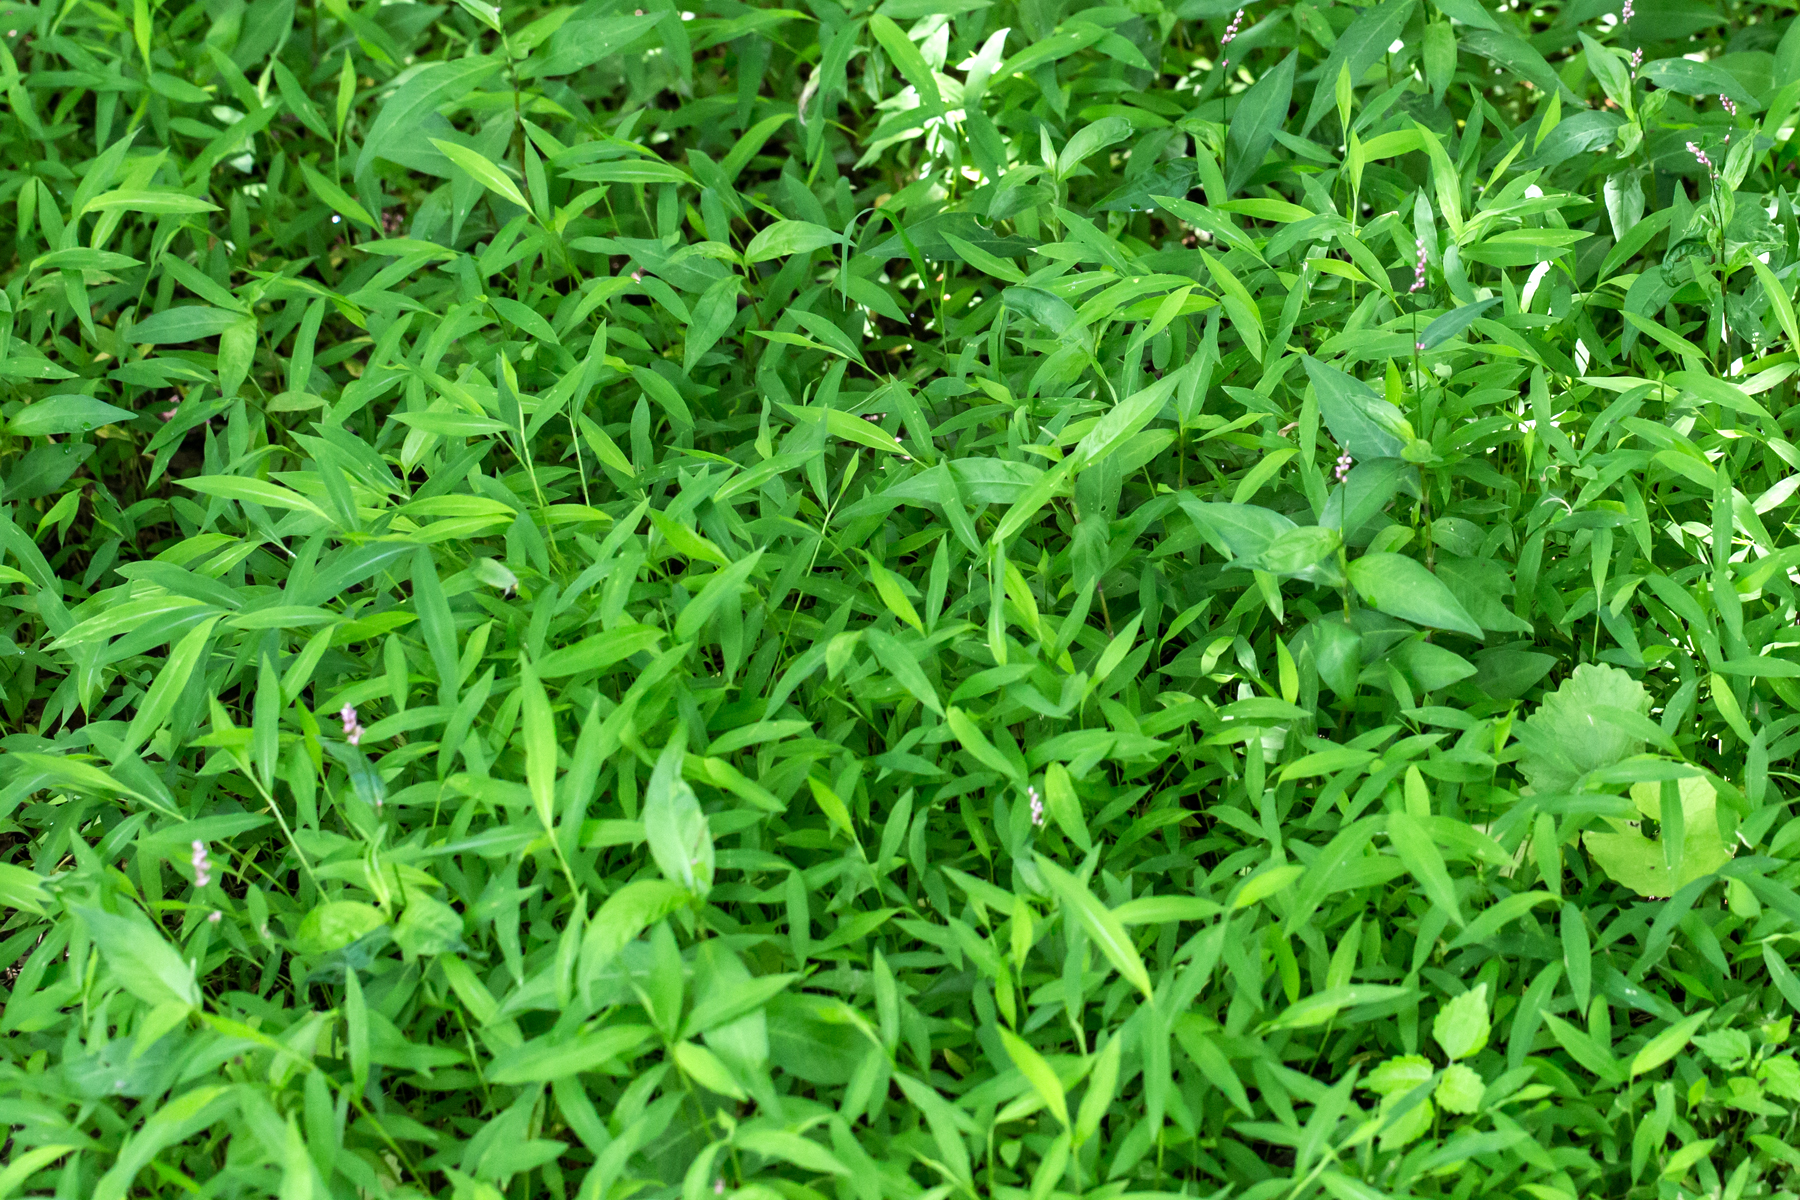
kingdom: Plantae
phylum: Tracheophyta
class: Liliopsida
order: Poales
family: Poaceae
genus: Microstegium
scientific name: Microstegium vimineum
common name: Japanese stiltgrass
